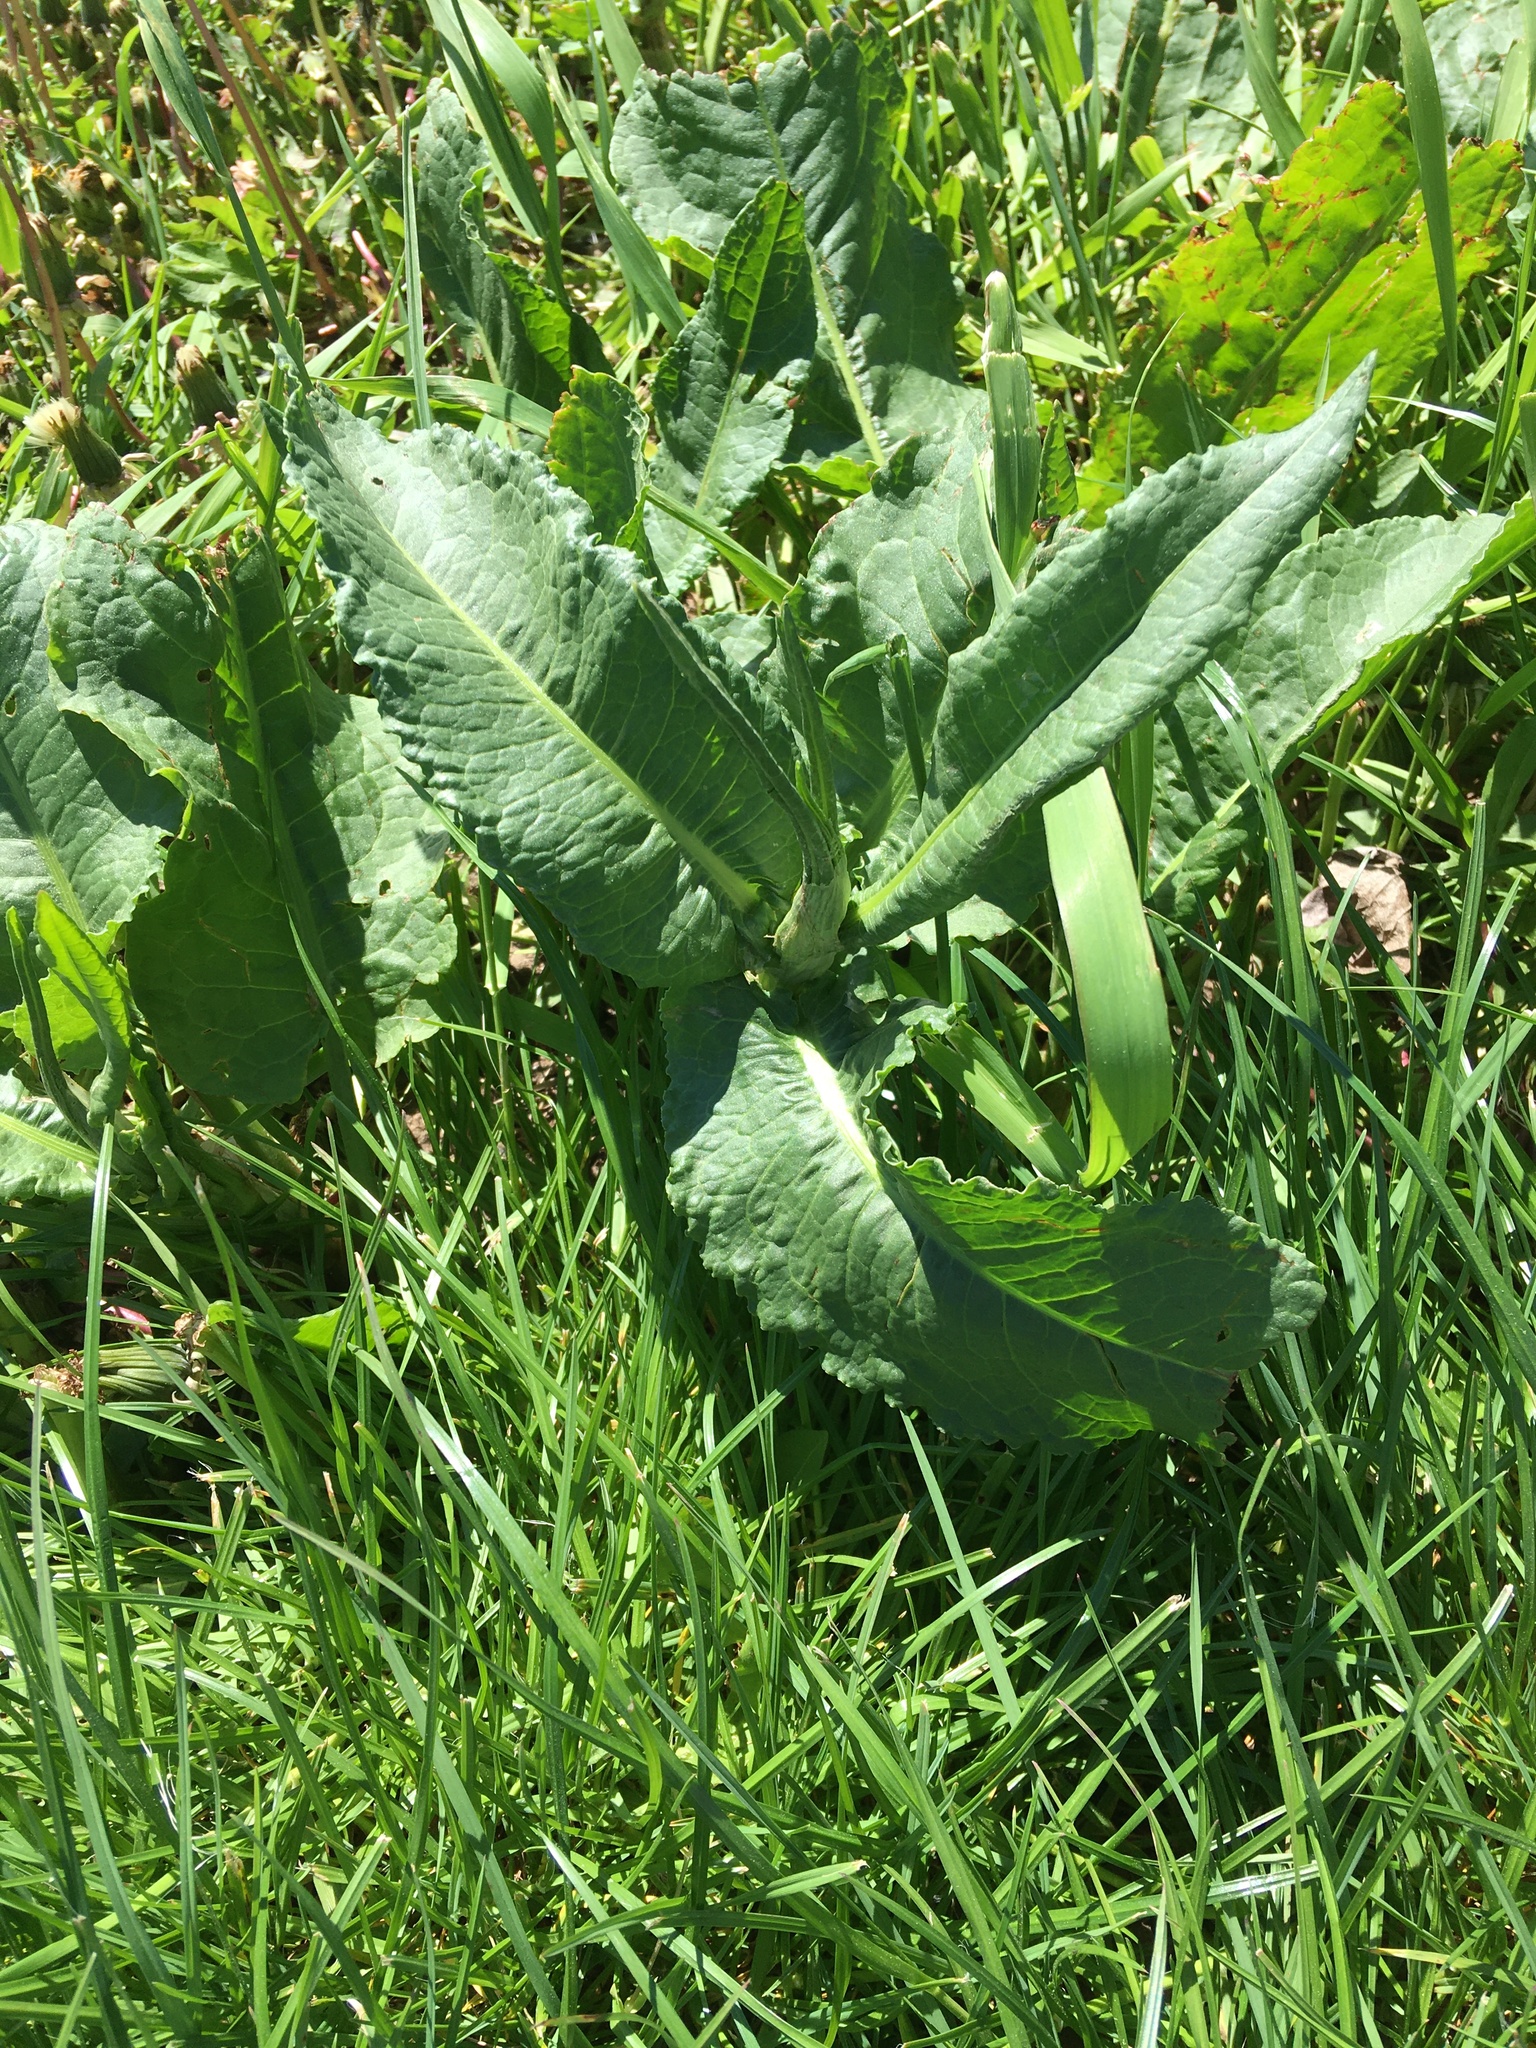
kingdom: Plantae
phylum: Tracheophyta
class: Magnoliopsida
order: Caryophyllales
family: Polygonaceae
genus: Rumex
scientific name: Rumex obtusifolius
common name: Bitter dock
